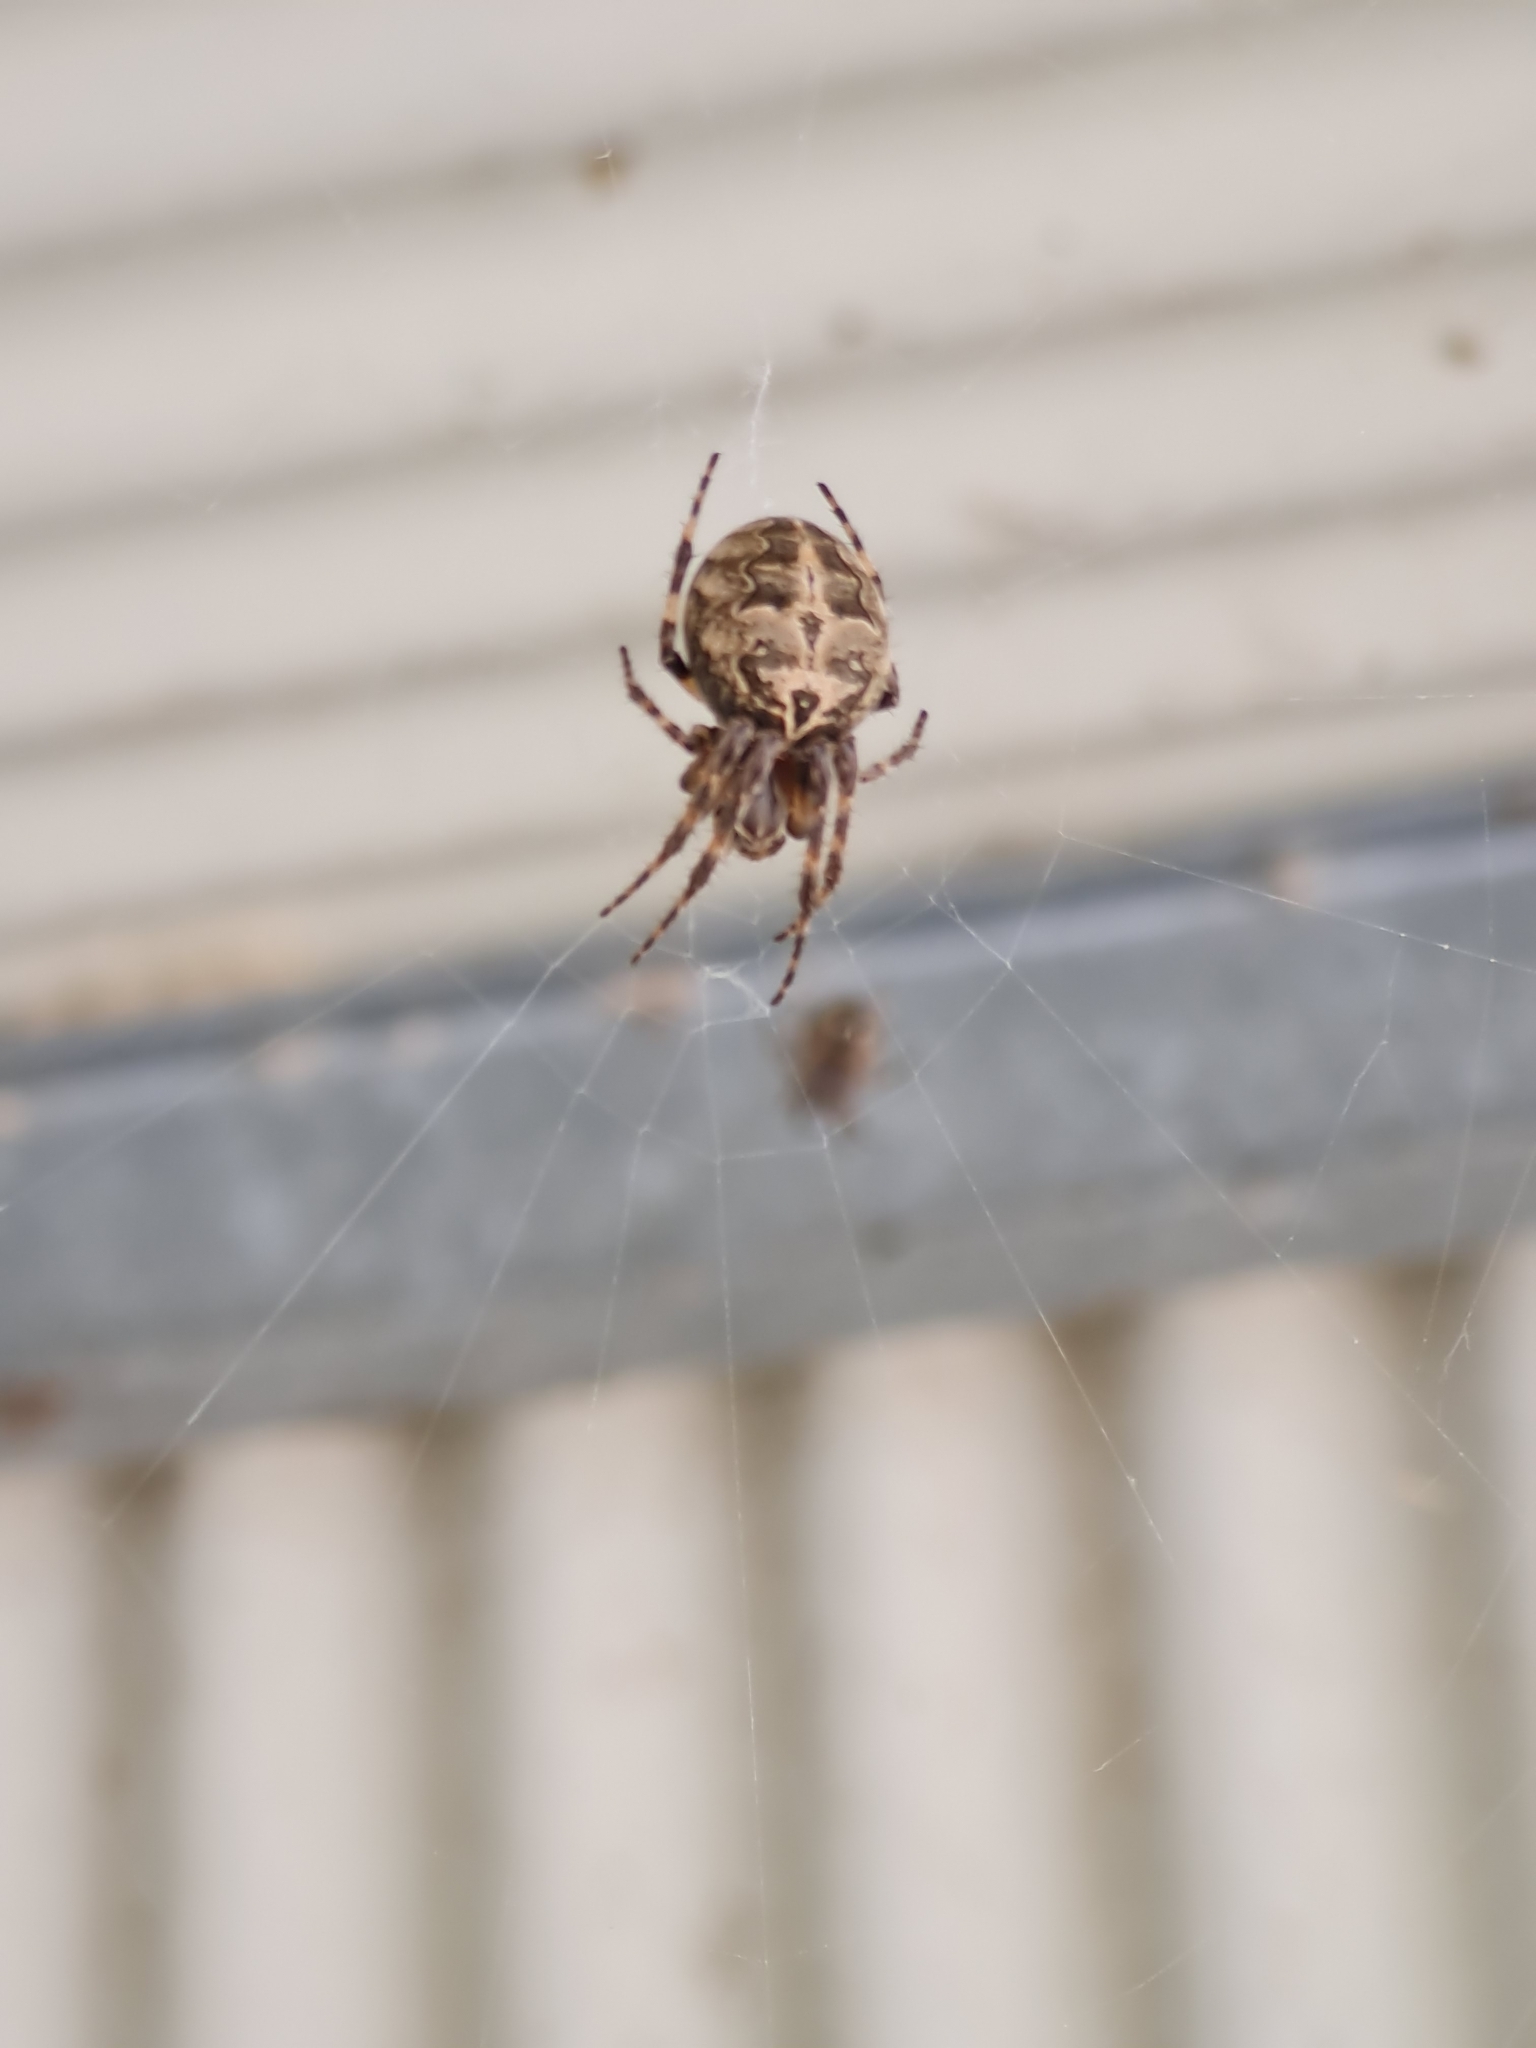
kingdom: Animalia
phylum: Arthropoda
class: Arachnida
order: Araneae
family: Araneidae
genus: Larinioides
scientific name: Larinioides sclopetarius
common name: Bridge orbweaver
